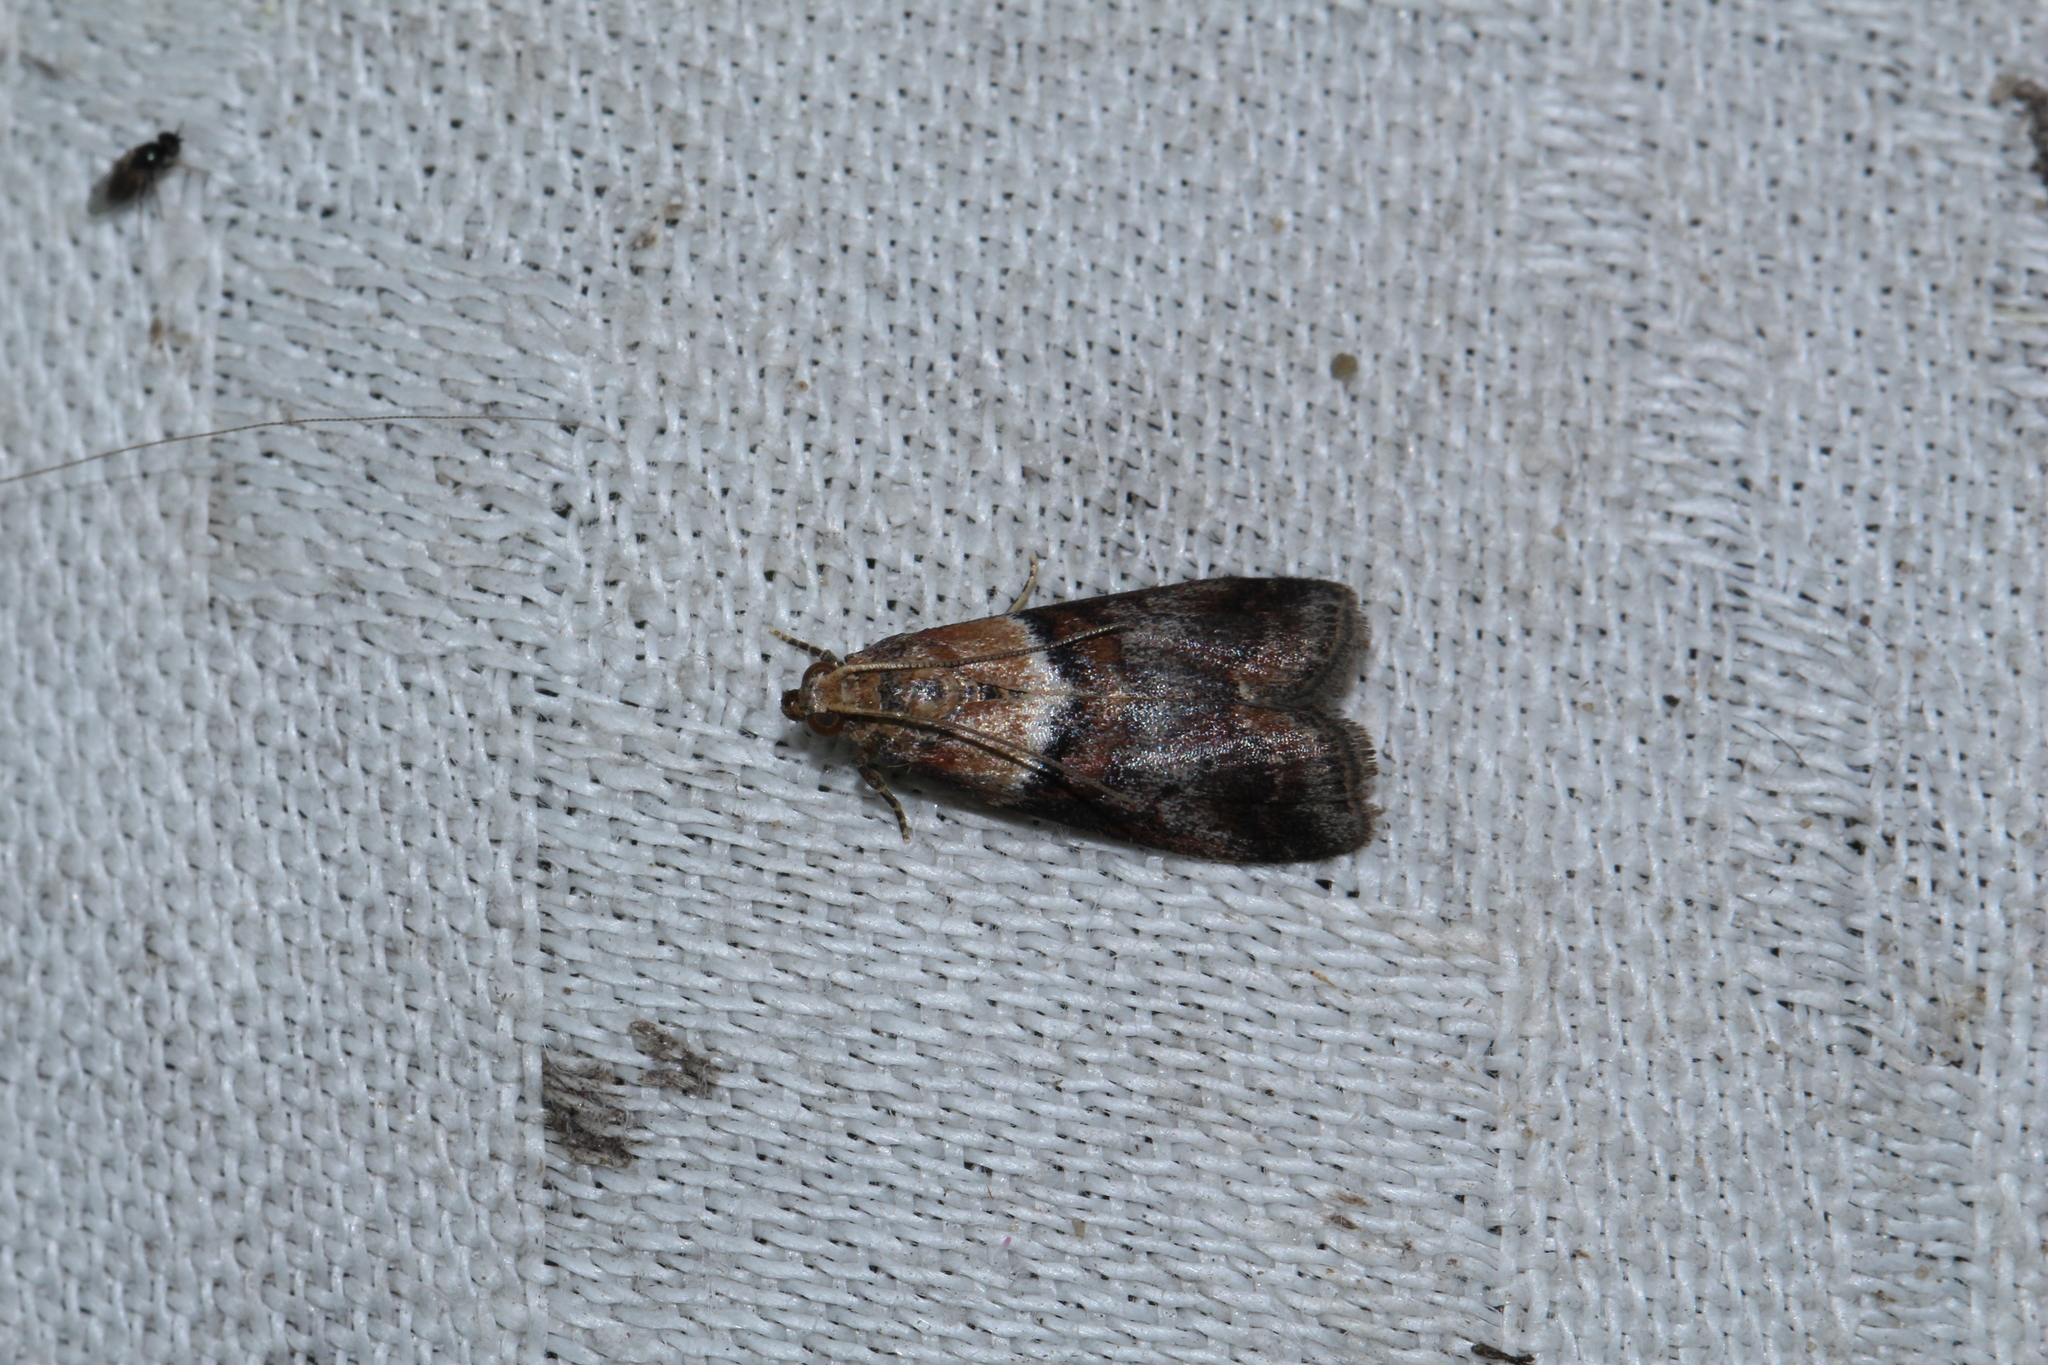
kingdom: Animalia
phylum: Arthropoda
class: Insecta
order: Lepidoptera
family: Pyralidae
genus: Acrobasis
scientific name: Acrobasis repandana
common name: Warted knot-horn
